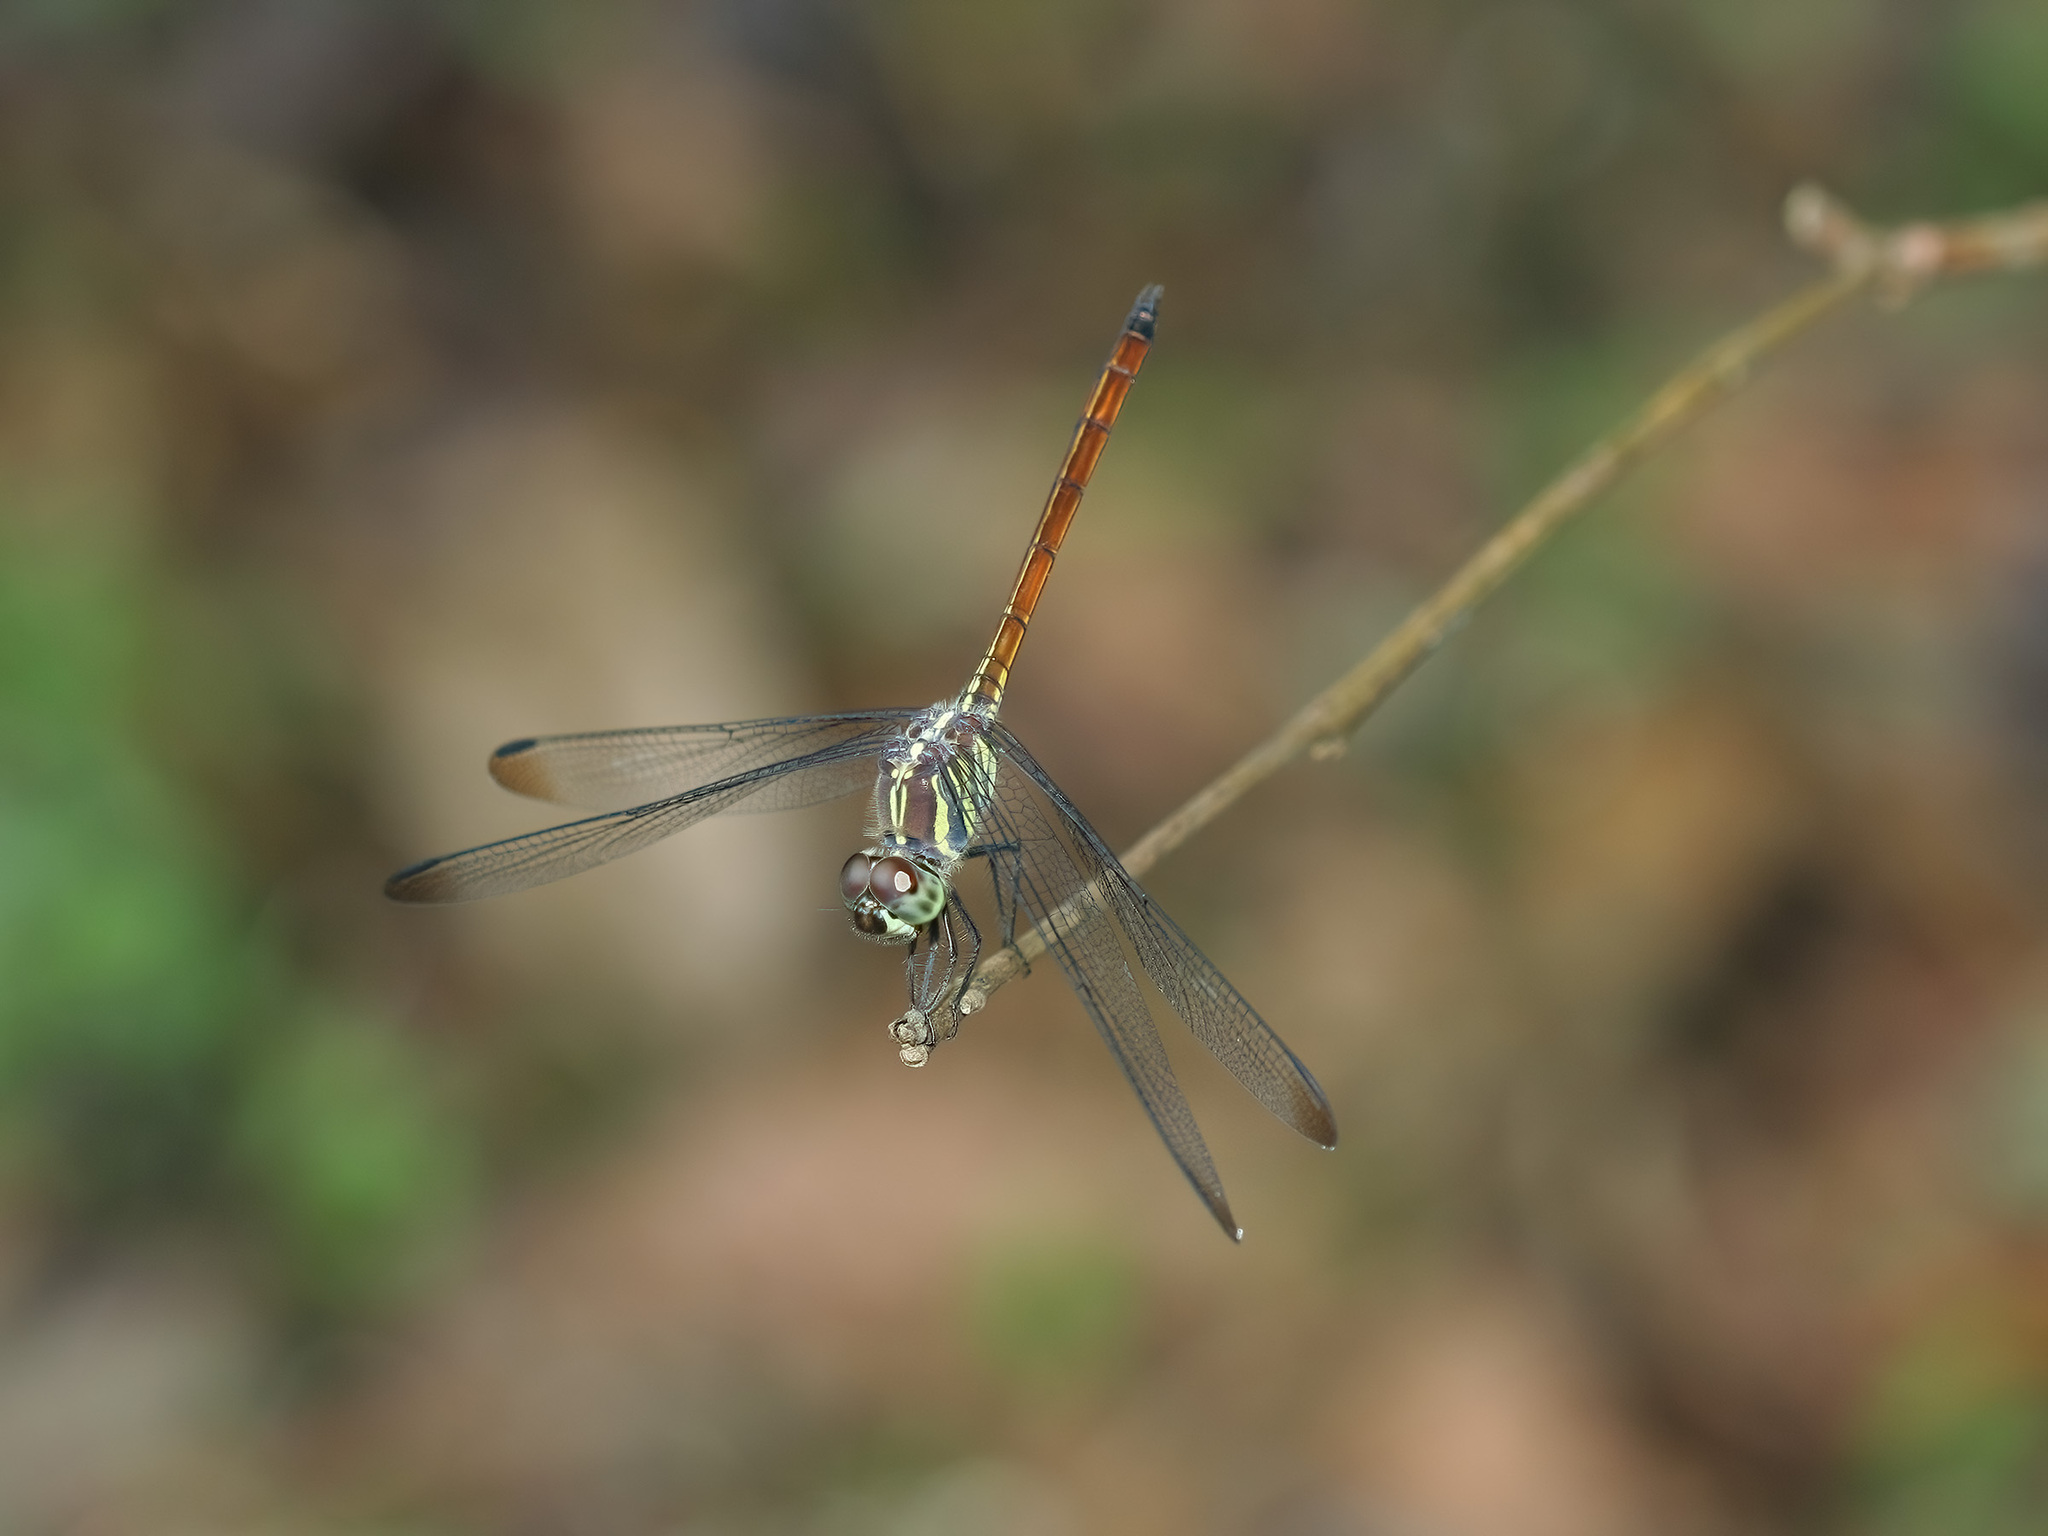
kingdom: Animalia
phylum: Arthropoda
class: Insecta
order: Odonata
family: Libellulidae
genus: Lathrecista
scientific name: Lathrecista asiatica
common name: Scarlet grenadier
